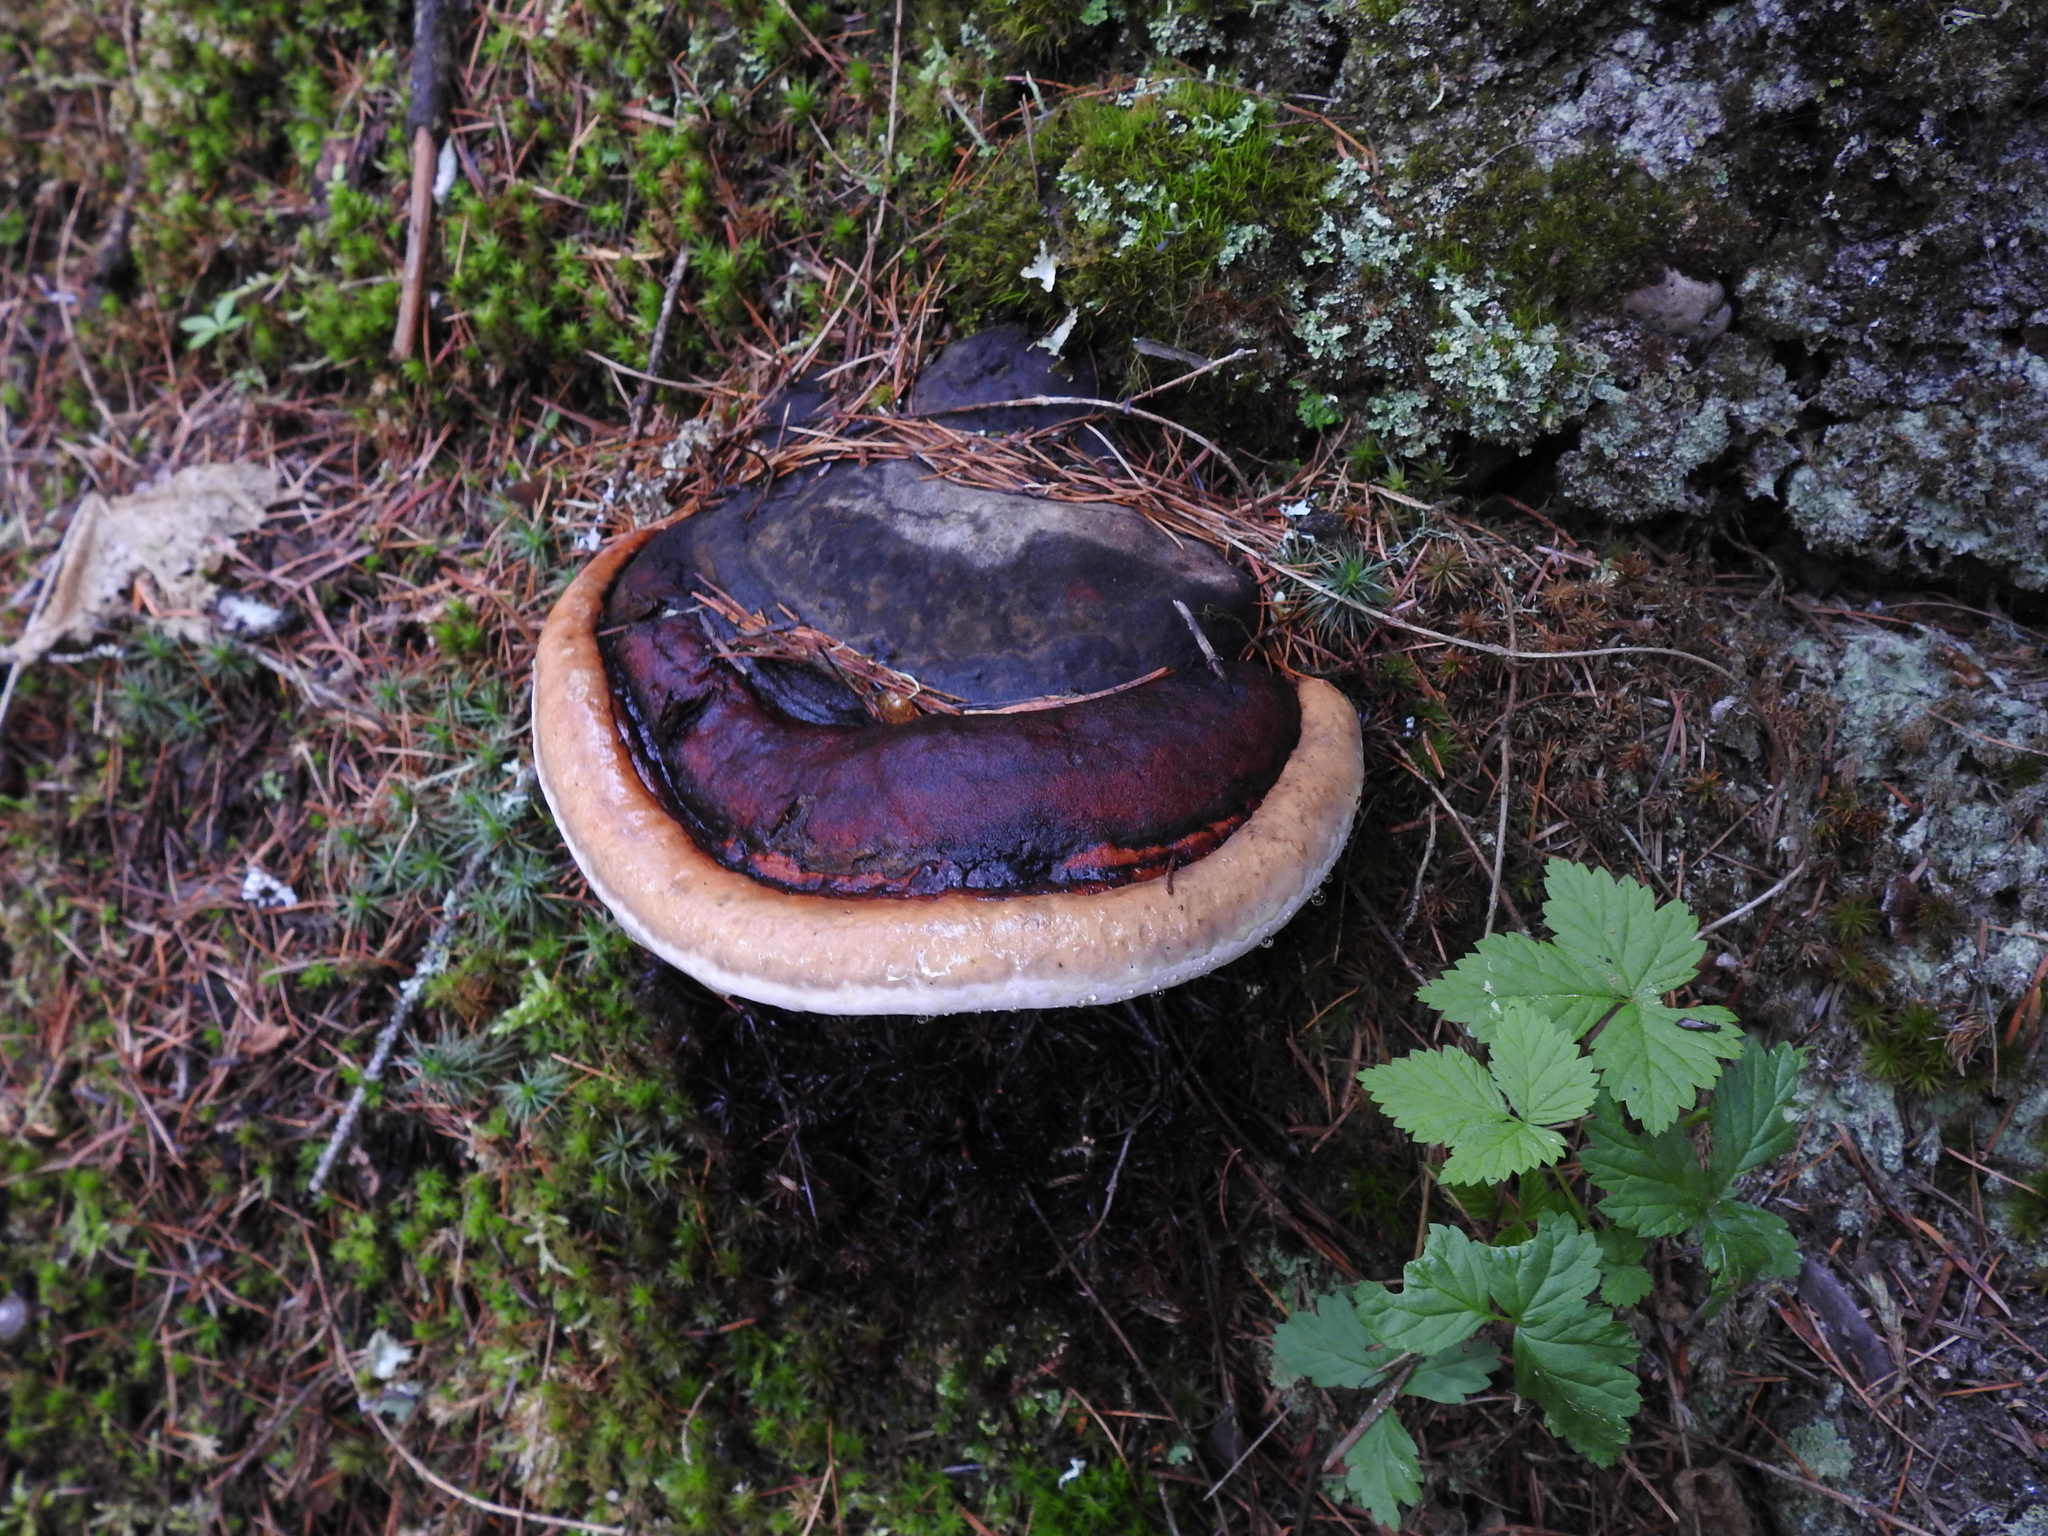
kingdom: Fungi
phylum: Basidiomycota
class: Agaricomycetes
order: Polyporales
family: Fomitopsidaceae
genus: Fomitopsis
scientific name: Fomitopsis mounceae
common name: Northern red belt
